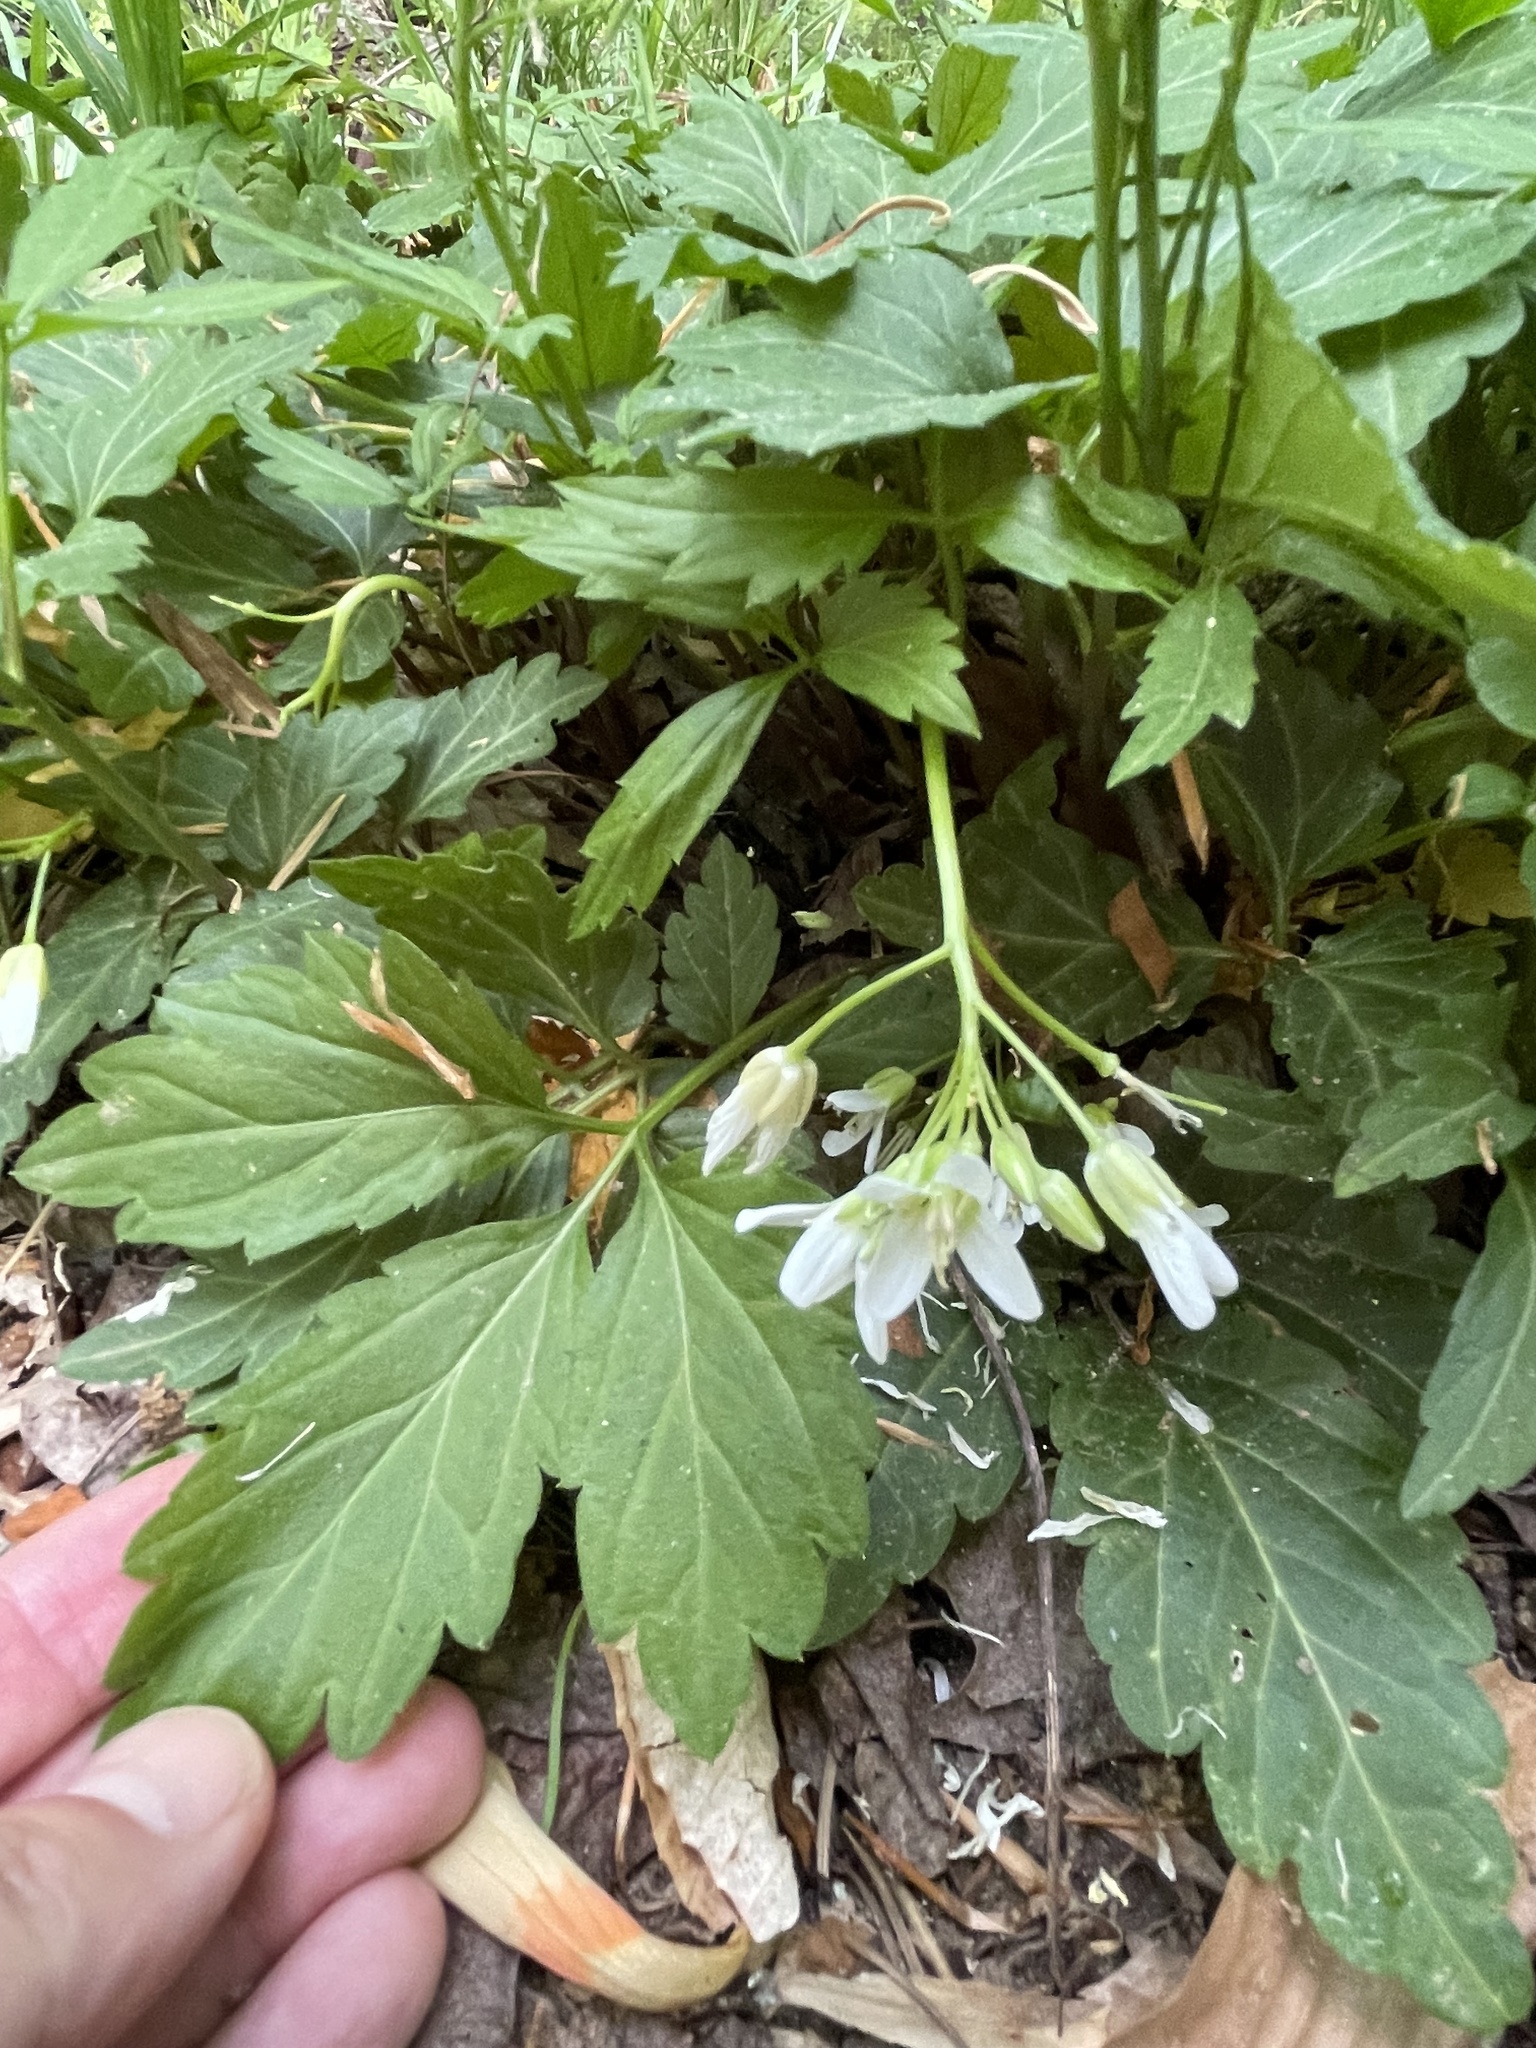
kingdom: Plantae
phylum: Tracheophyta
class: Magnoliopsida
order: Brassicales
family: Brassicaceae
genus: Cardamine
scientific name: Cardamine diphylla
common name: Broad-leaved toothwort
